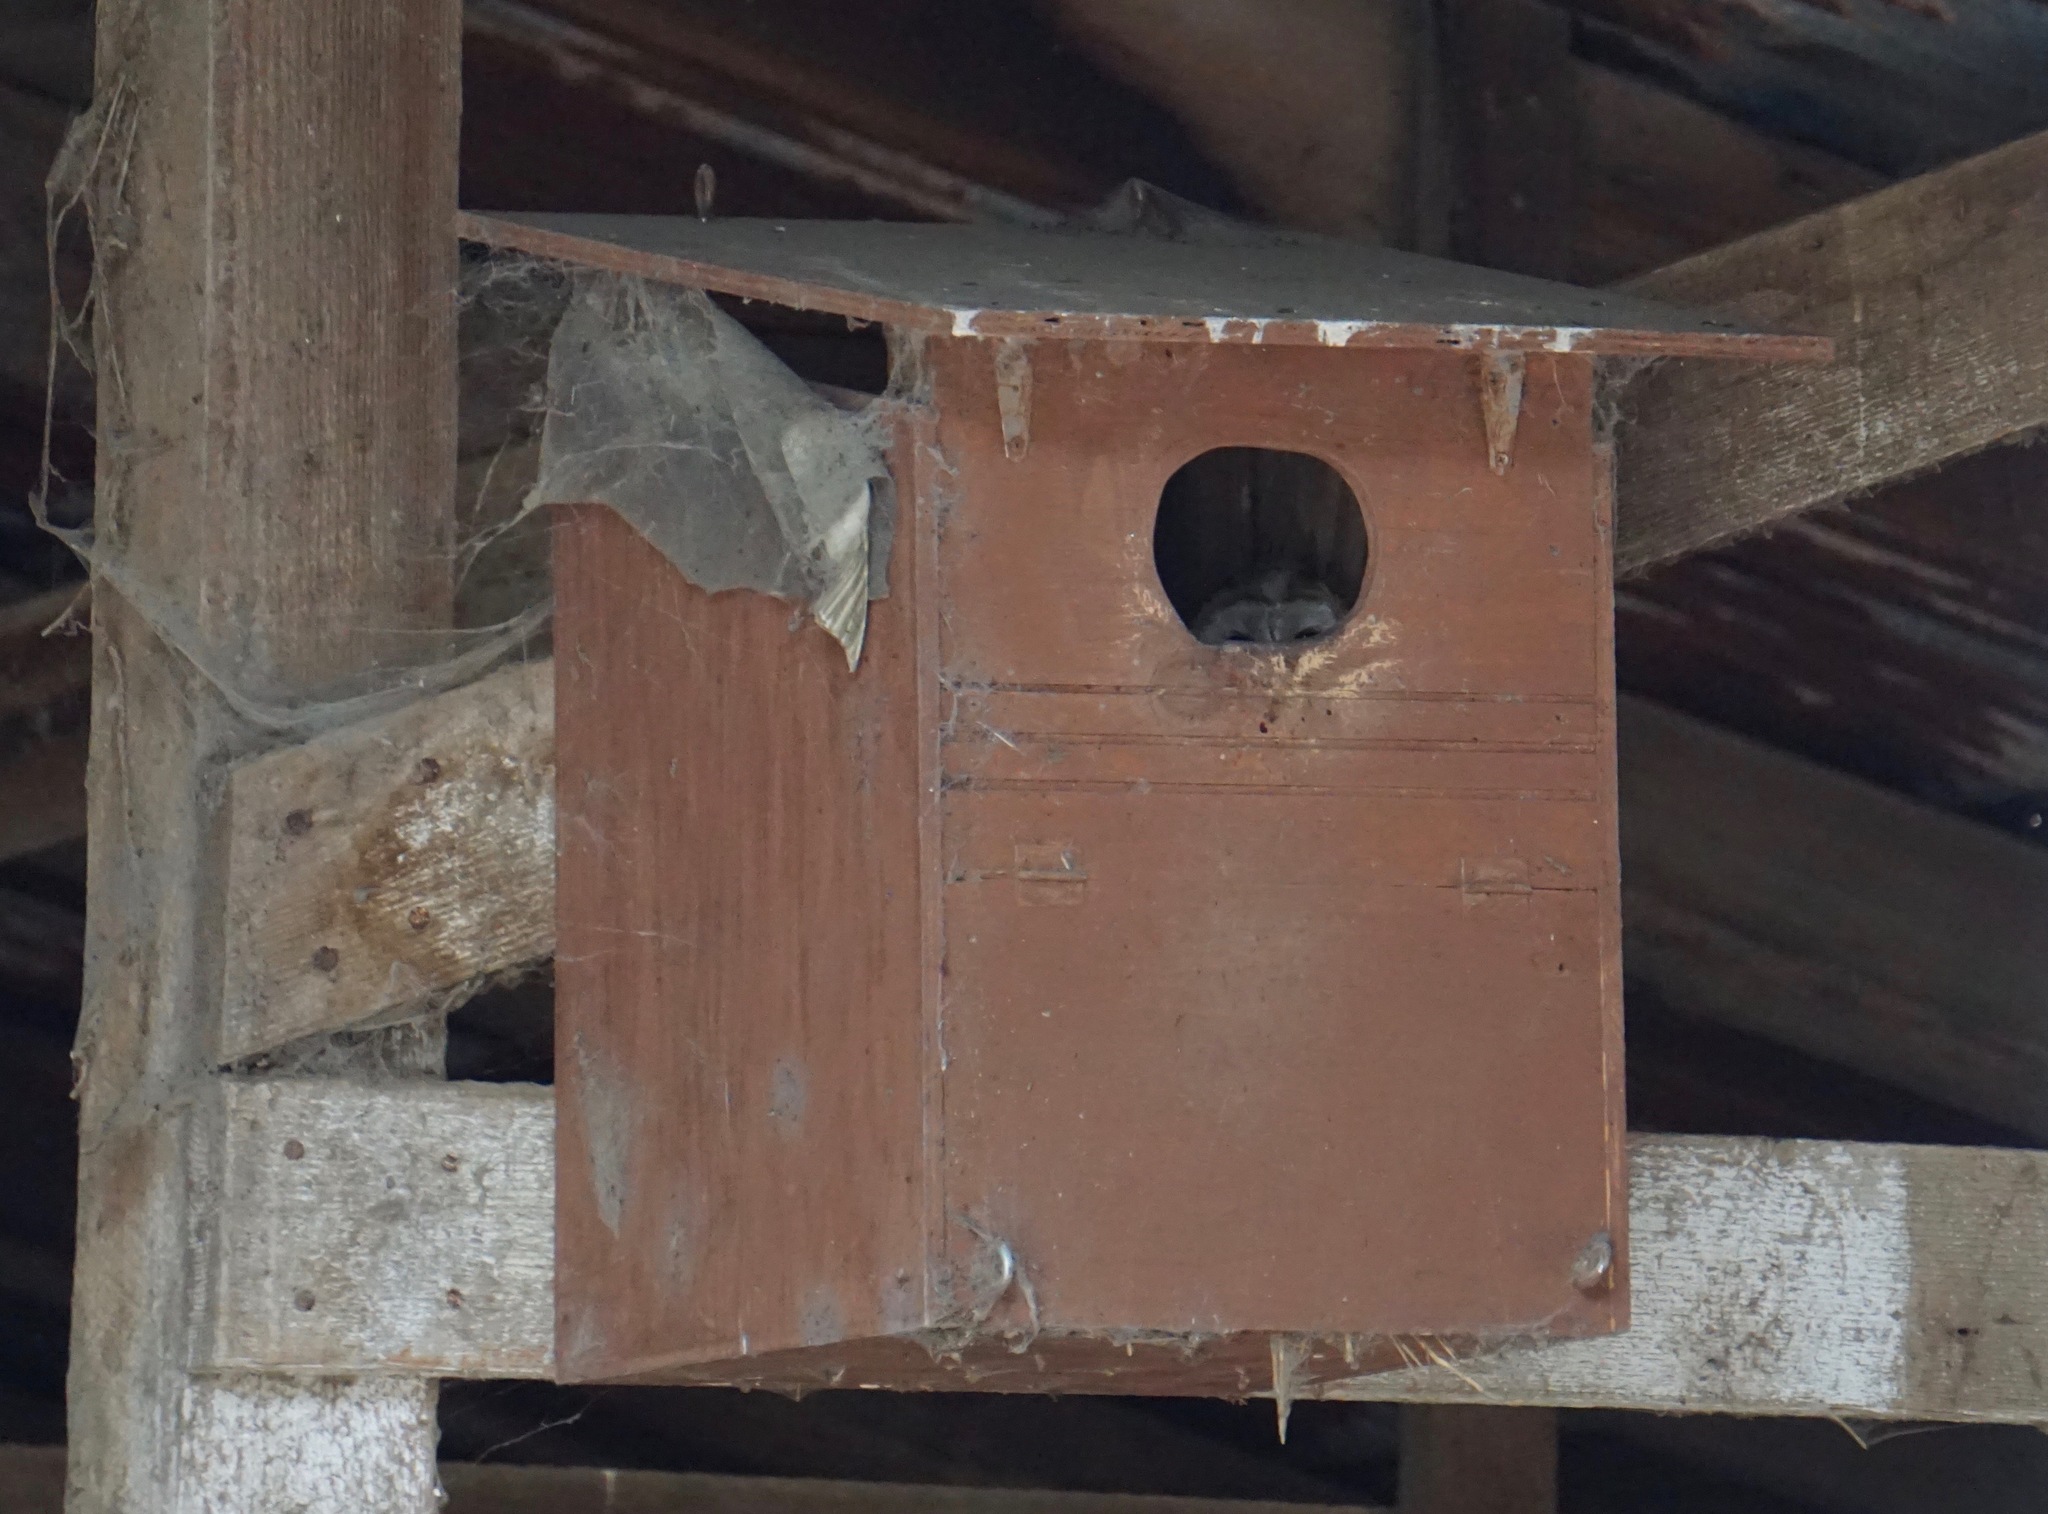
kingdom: Animalia
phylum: Chordata
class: Aves
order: Strigiformes
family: Tytonidae
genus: Tyto
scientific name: Tyto alba
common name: Barn owl
